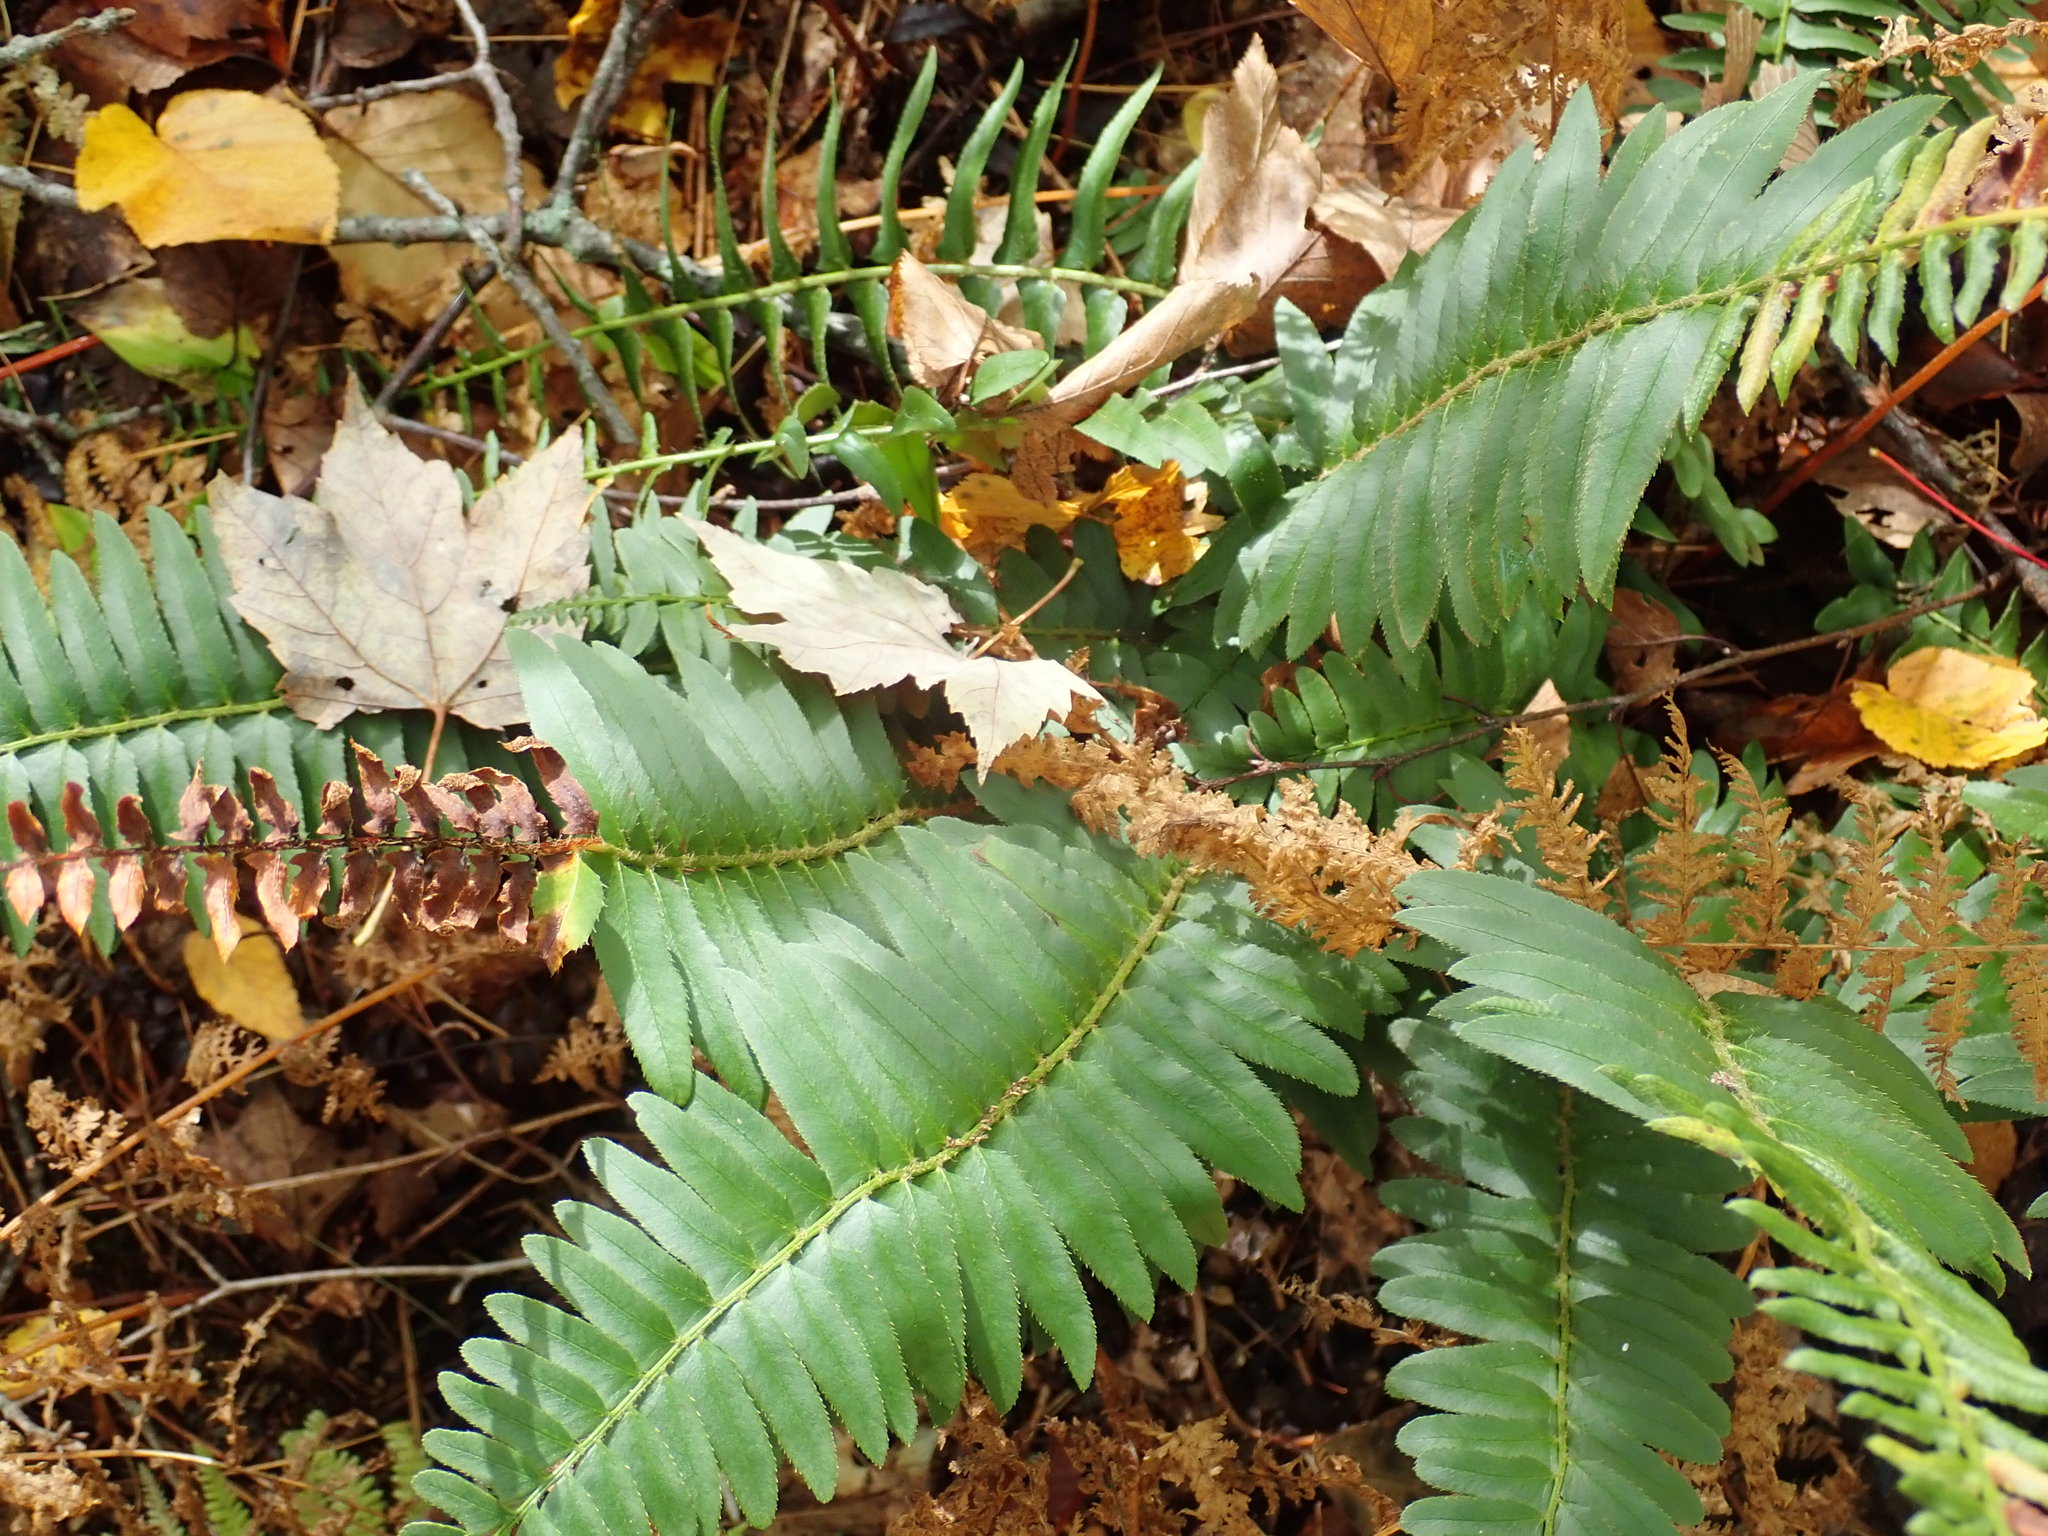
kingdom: Plantae
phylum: Tracheophyta
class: Polypodiopsida
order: Polypodiales
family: Dryopteridaceae
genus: Polystichum
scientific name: Polystichum acrostichoides
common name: Christmas fern
